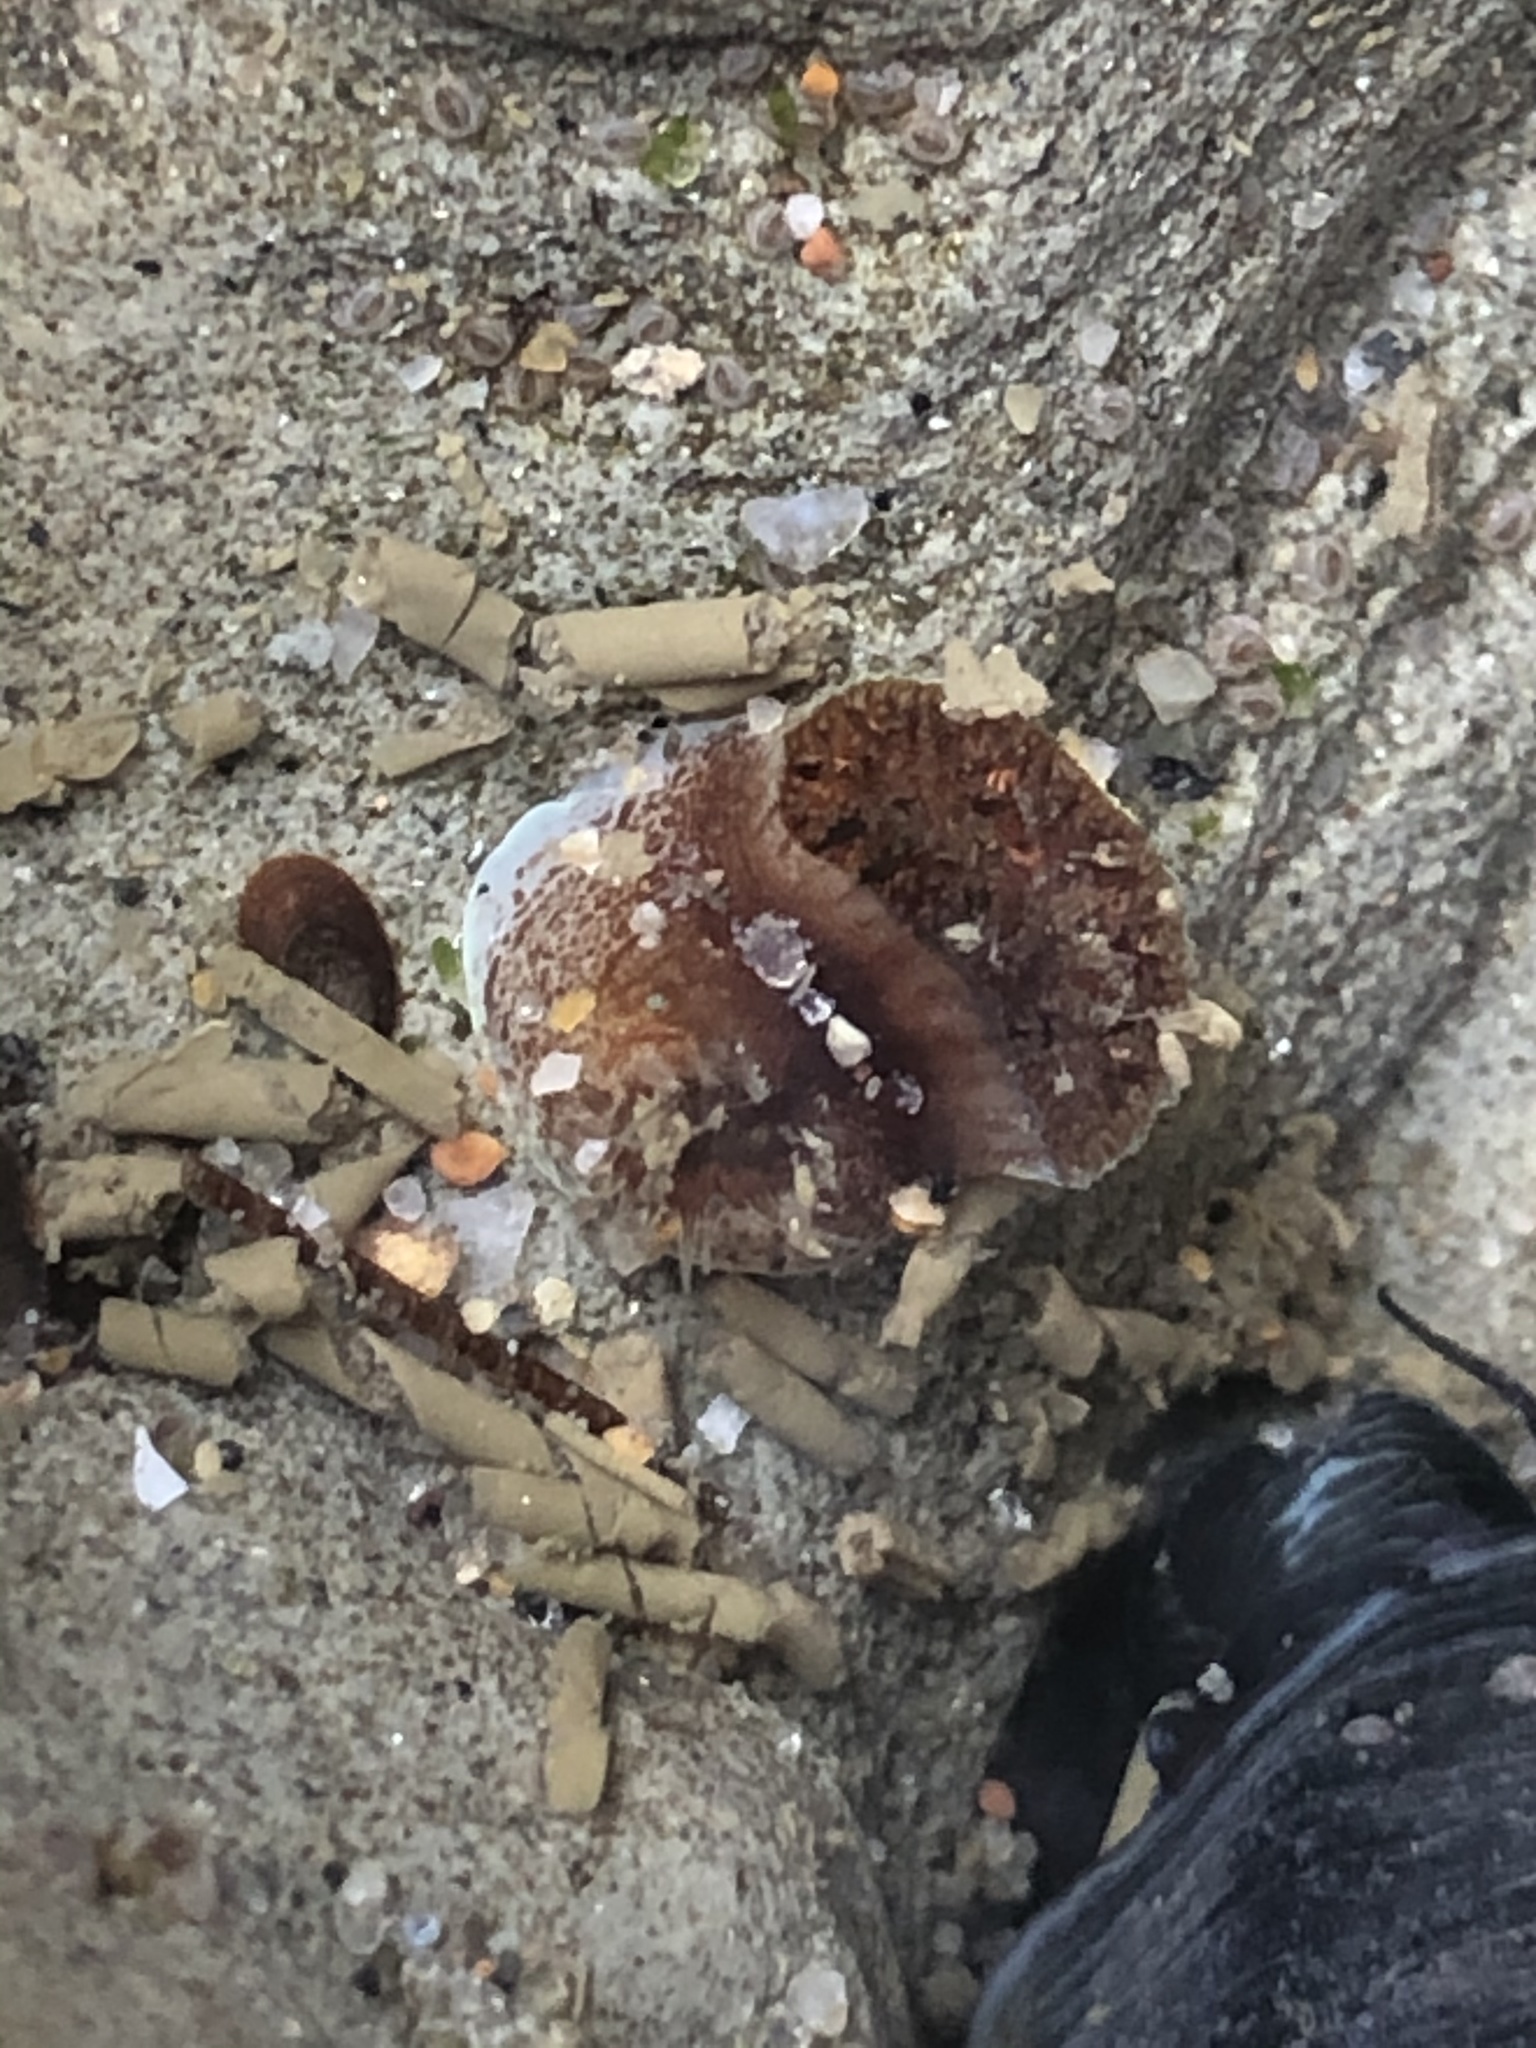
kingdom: Animalia
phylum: Mollusca
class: Bivalvia
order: Myida
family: Pholadidae
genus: Parapholas
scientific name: Parapholas californica
